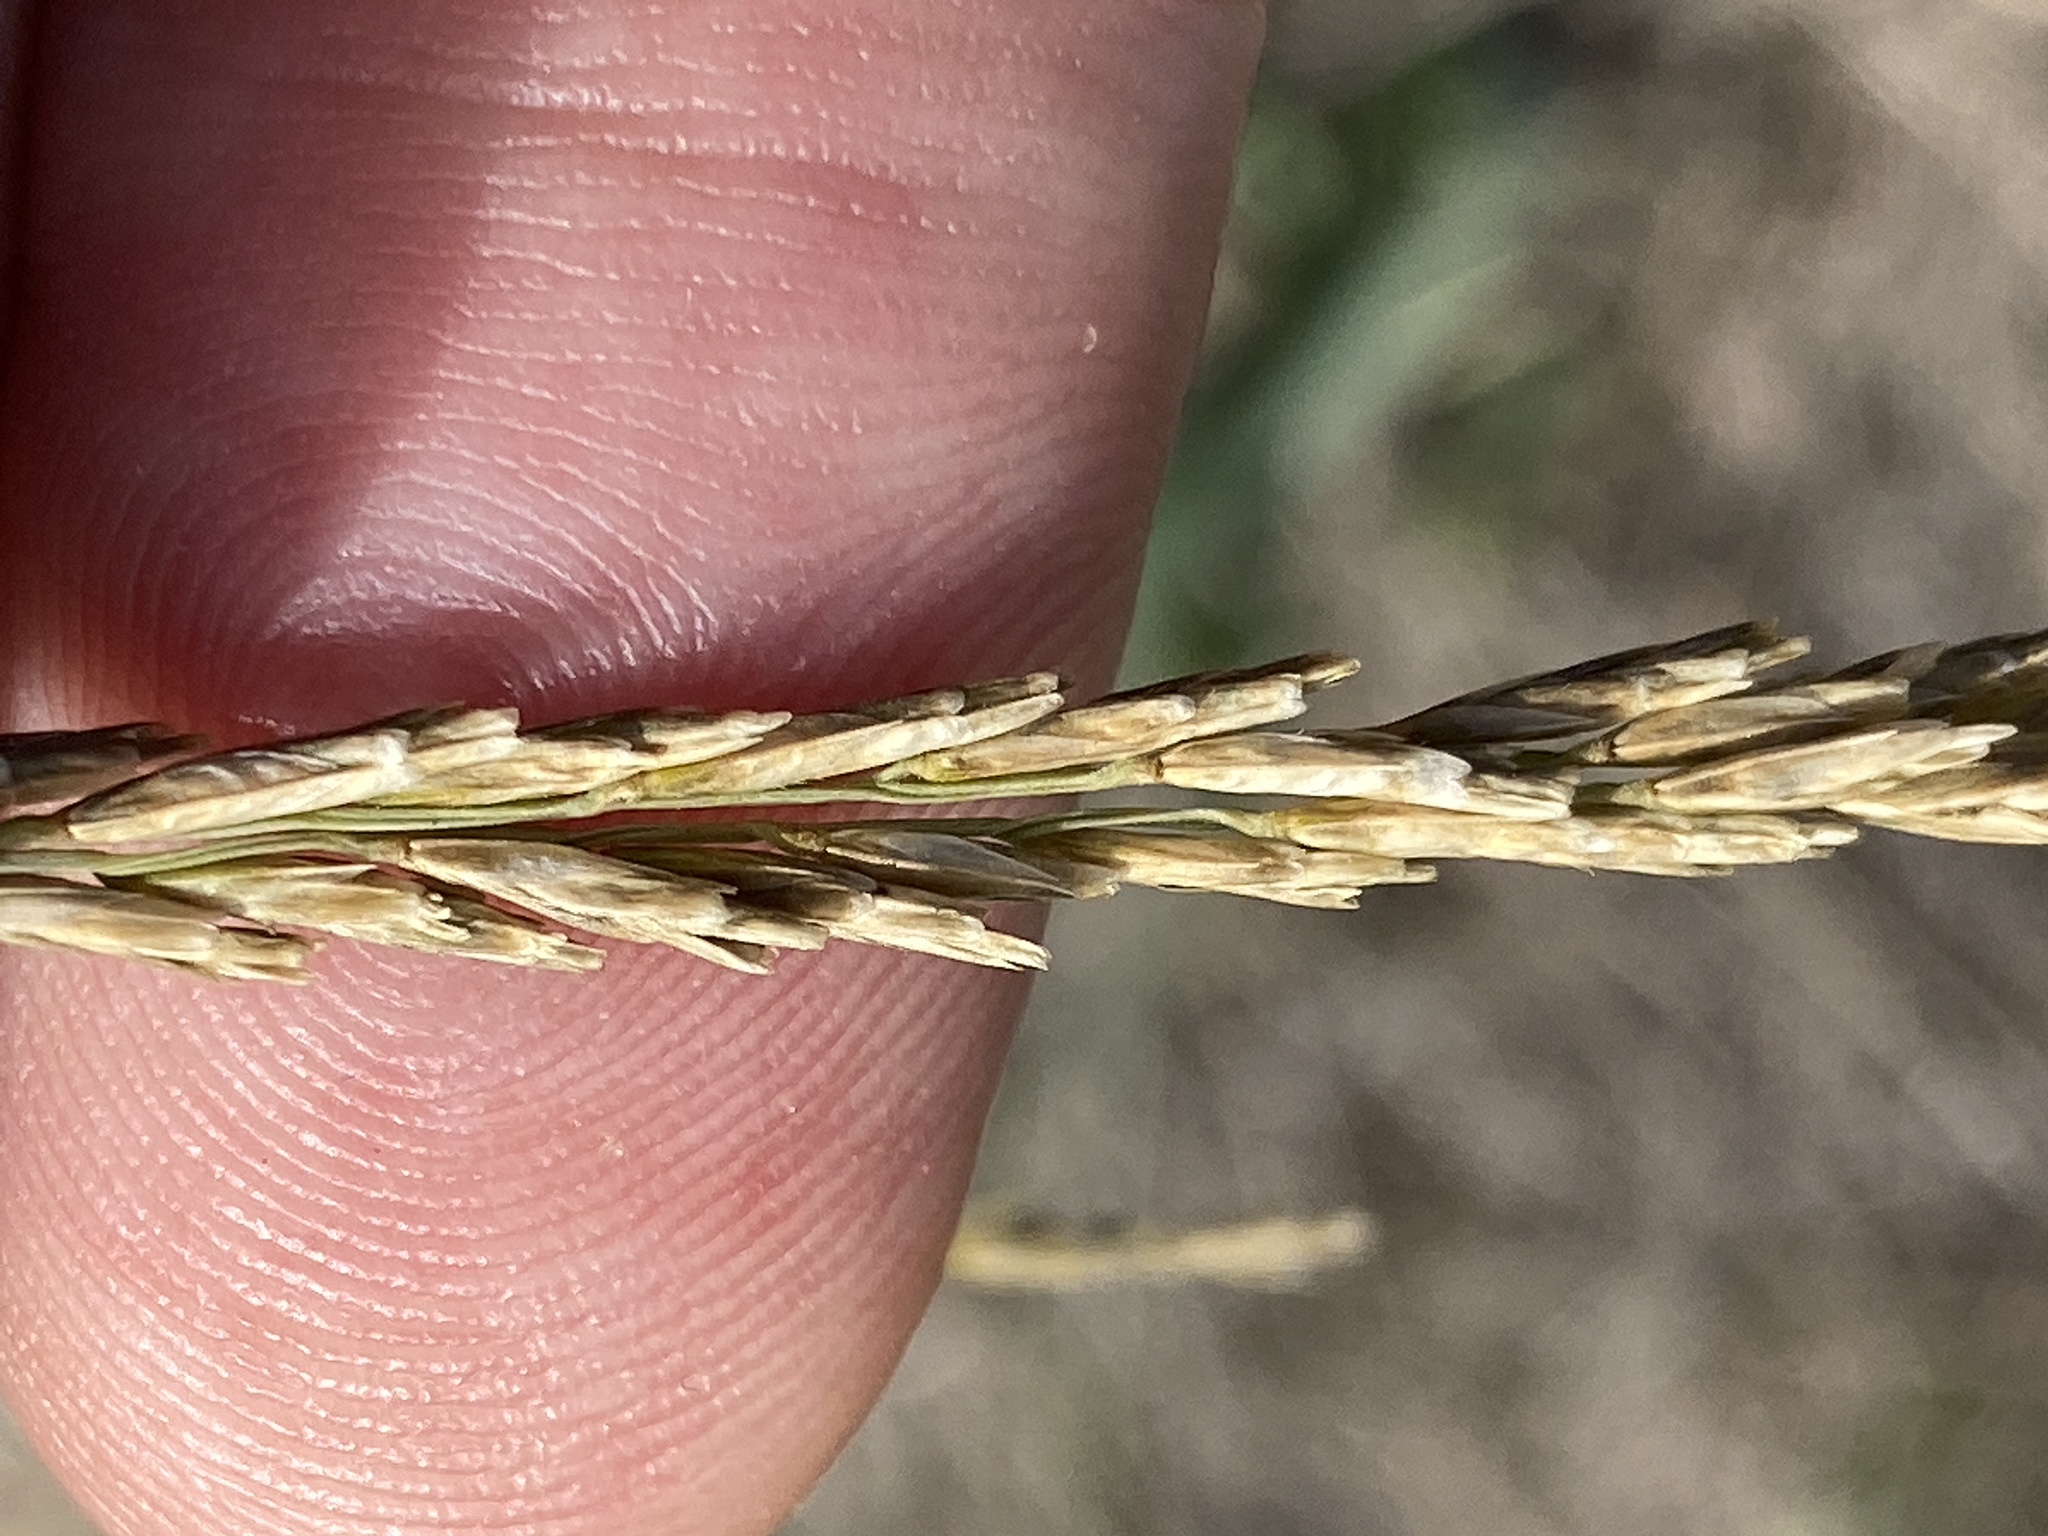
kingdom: Plantae
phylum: Tracheophyta
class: Liliopsida
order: Poales
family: Poaceae
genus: Disakisperma
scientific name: Disakisperma dubium
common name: Green sprangletop
